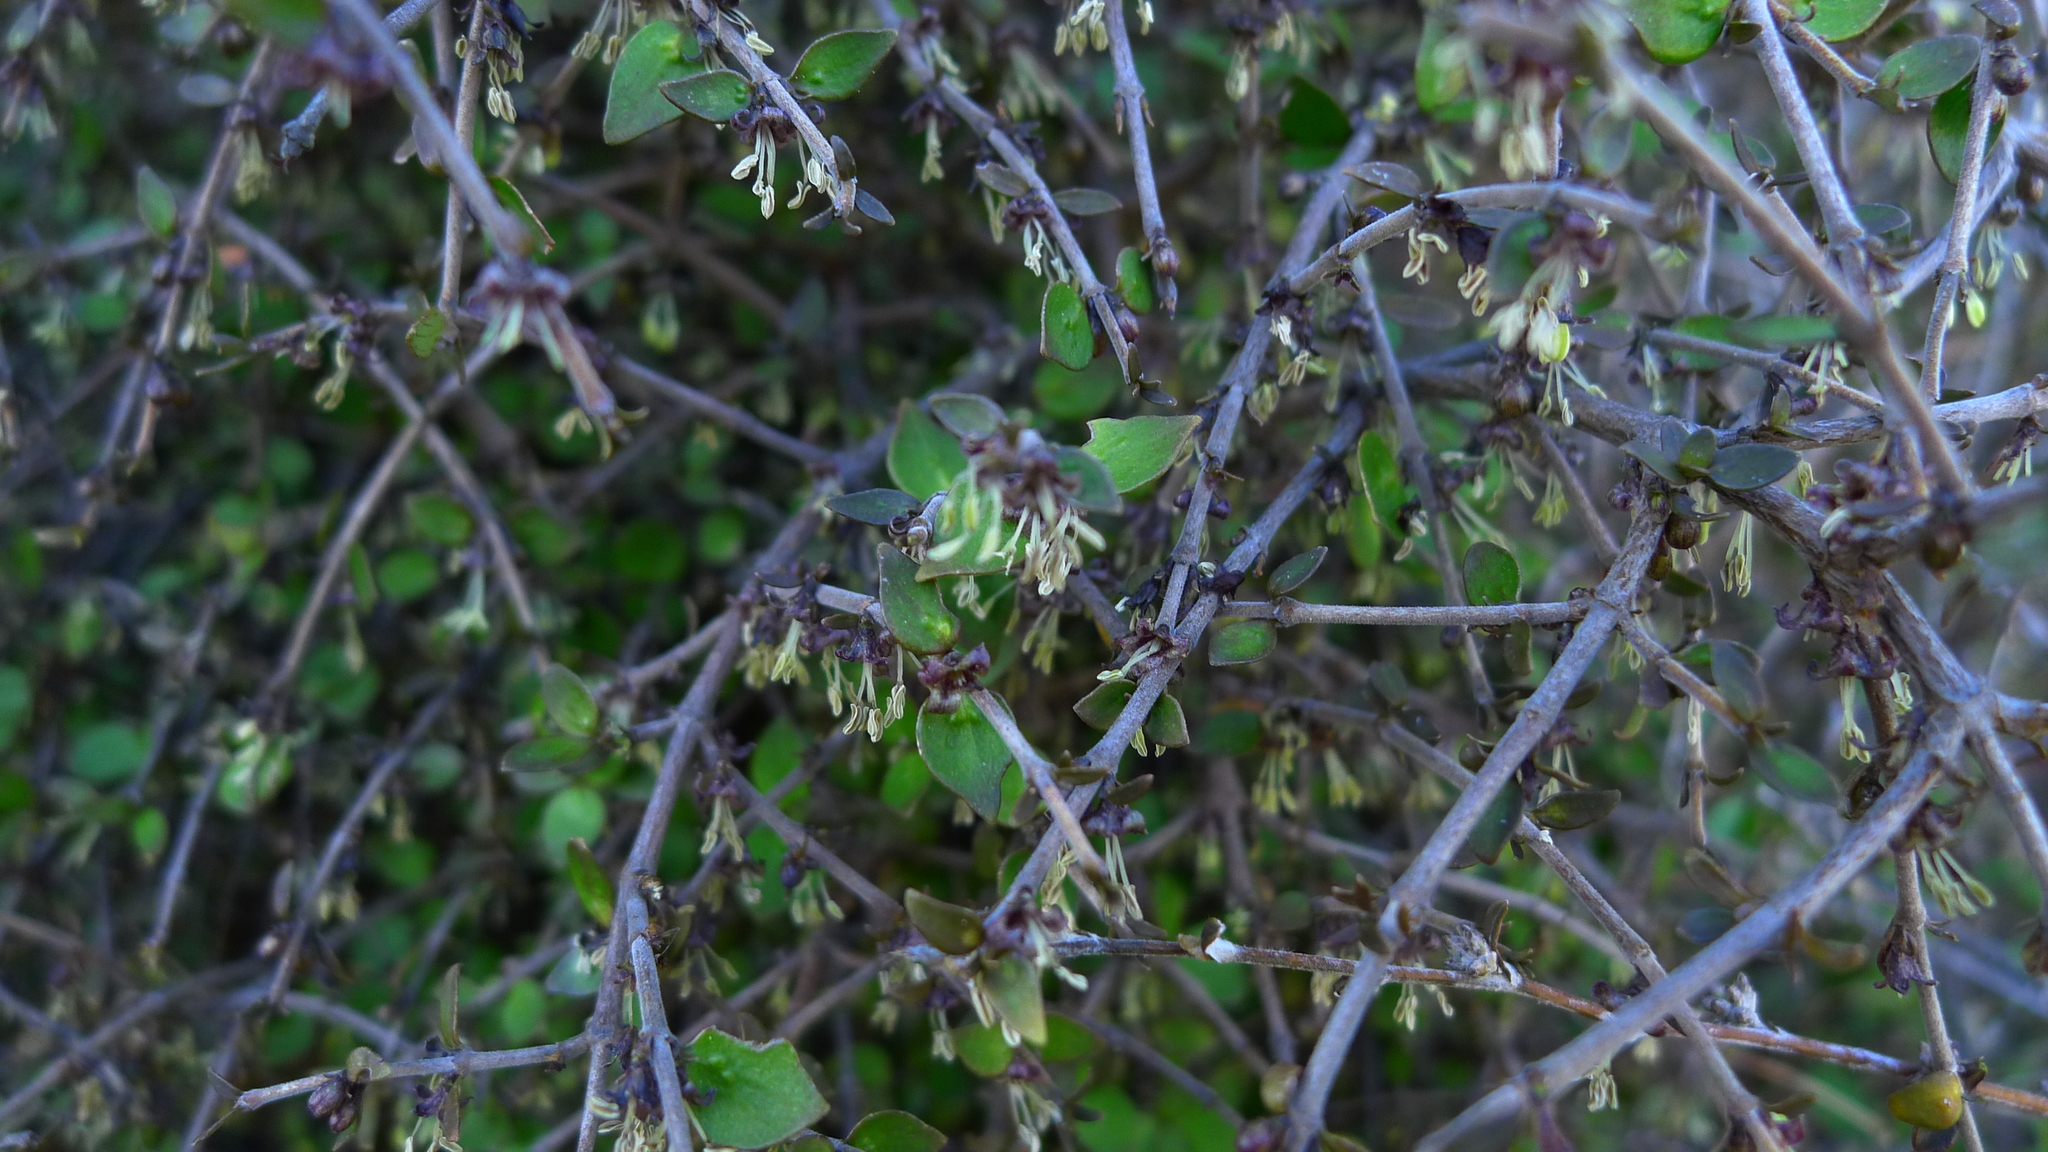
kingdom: Plantae
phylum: Tracheophyta
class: Magnoliopsida
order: Gentianales
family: Rubiaceae
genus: Coprosma
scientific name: Coprosma rhamnoides
